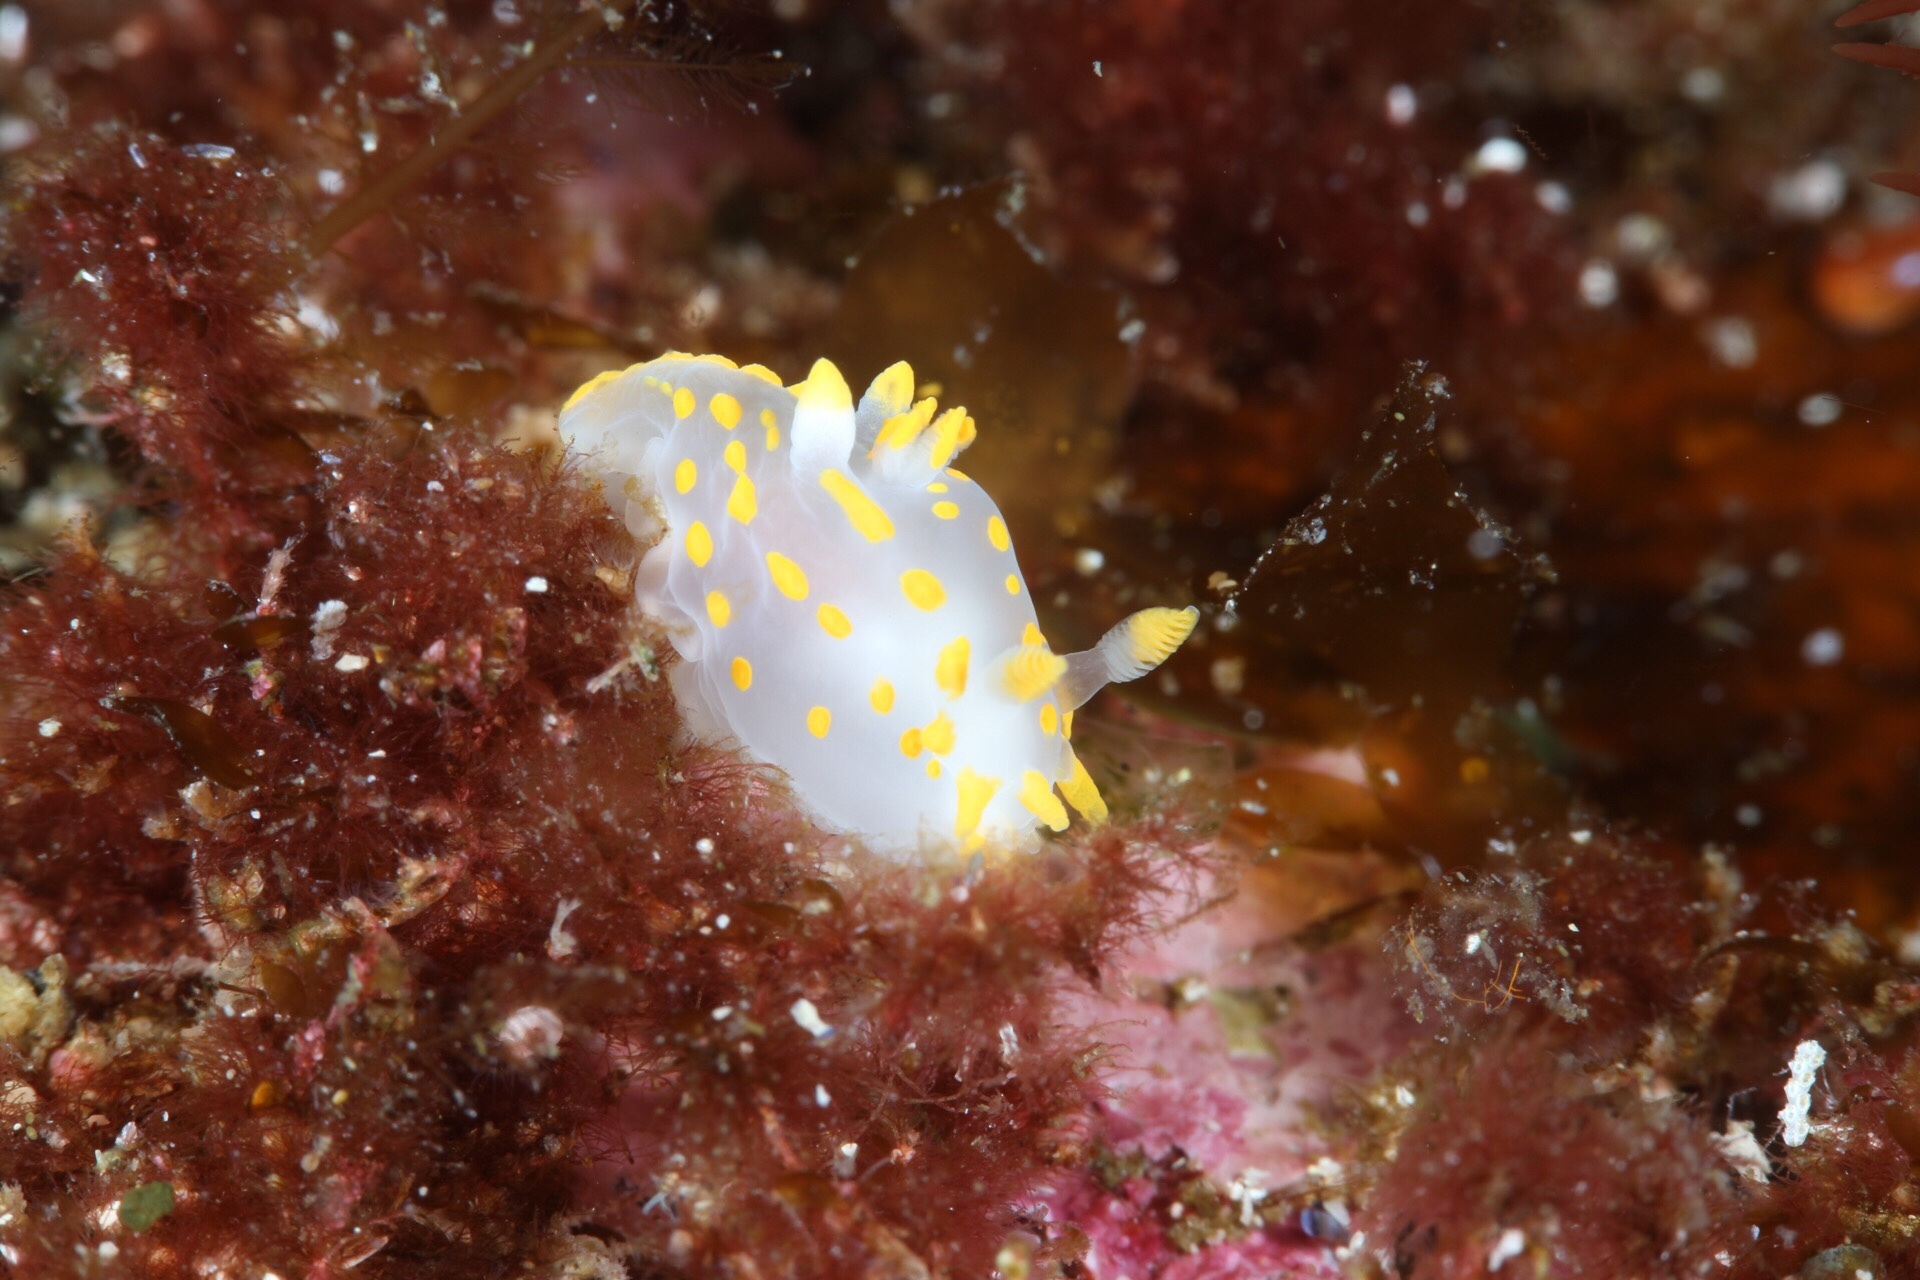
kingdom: Animalia
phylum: Mollusca
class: Gastropoda
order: Nudibranchia
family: Polyceridae
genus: Polycera
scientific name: Polycera quadrilineata
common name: Four-striped polycera
